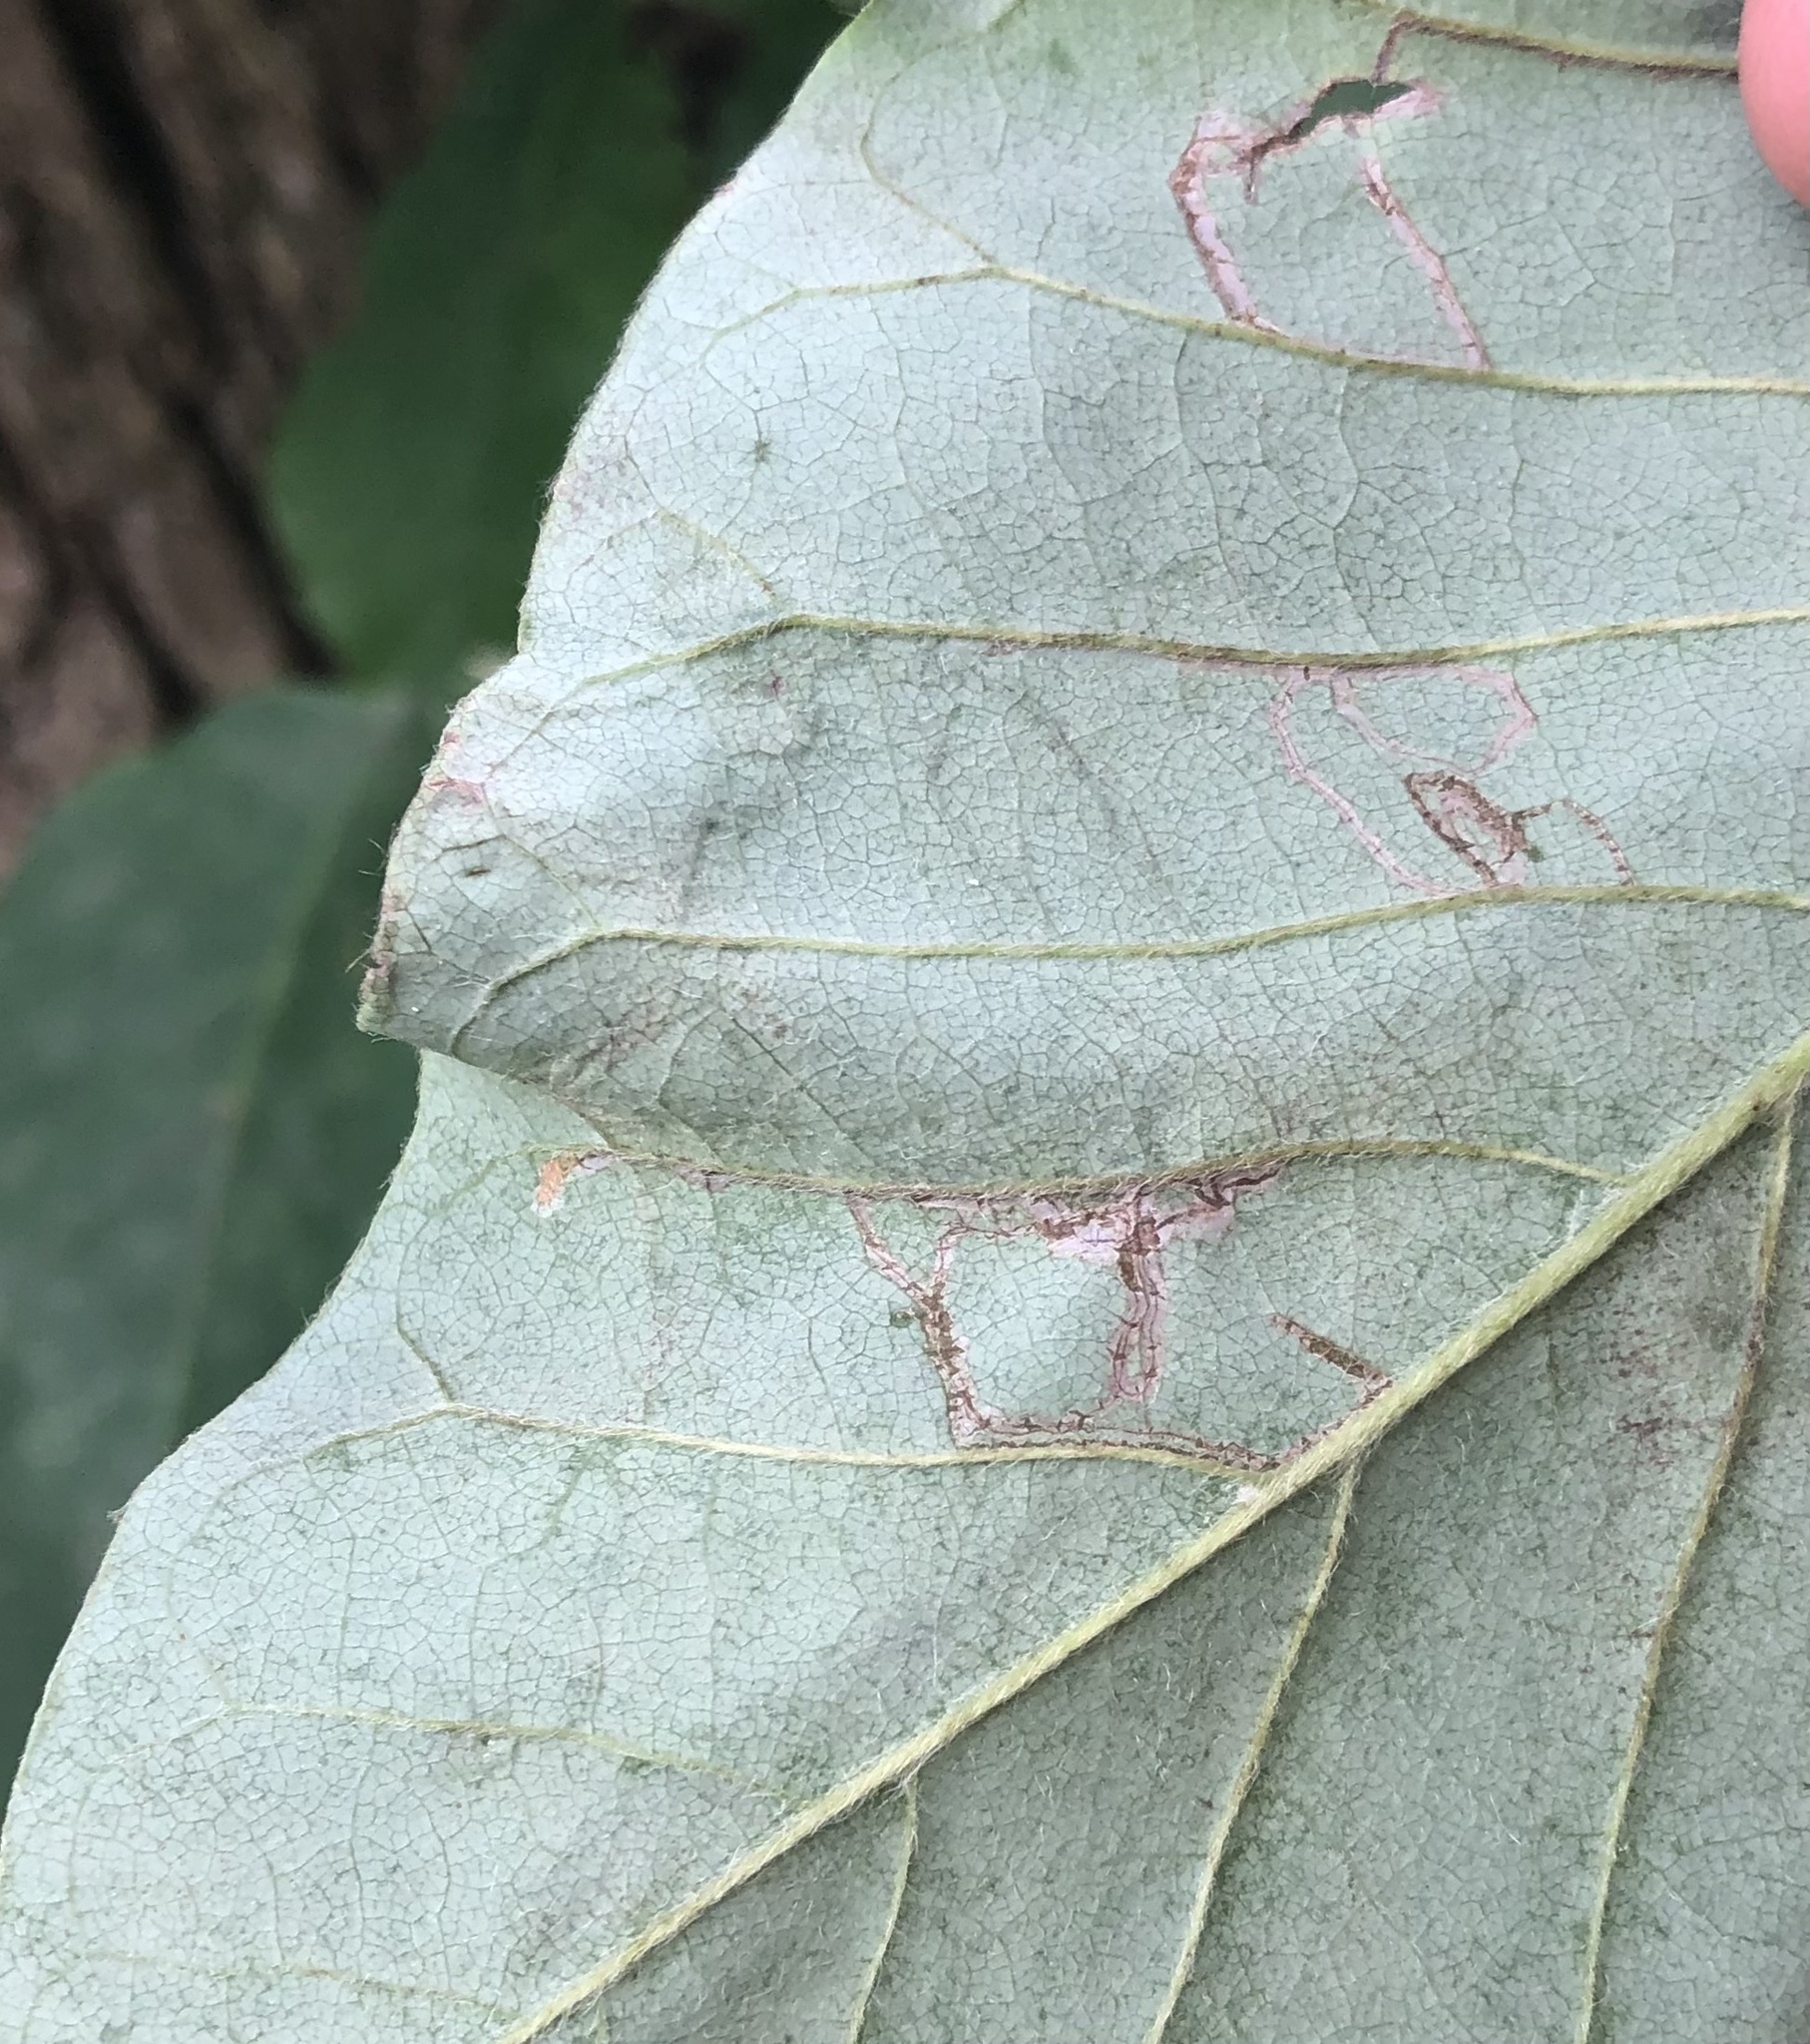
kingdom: Animalia
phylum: Arthropoda
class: Insecta
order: Lepidoptera
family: Gracillariidae
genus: Phyllocnistis
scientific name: Phyllocnistis liriodendronella
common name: Tulip tree leaf miner
